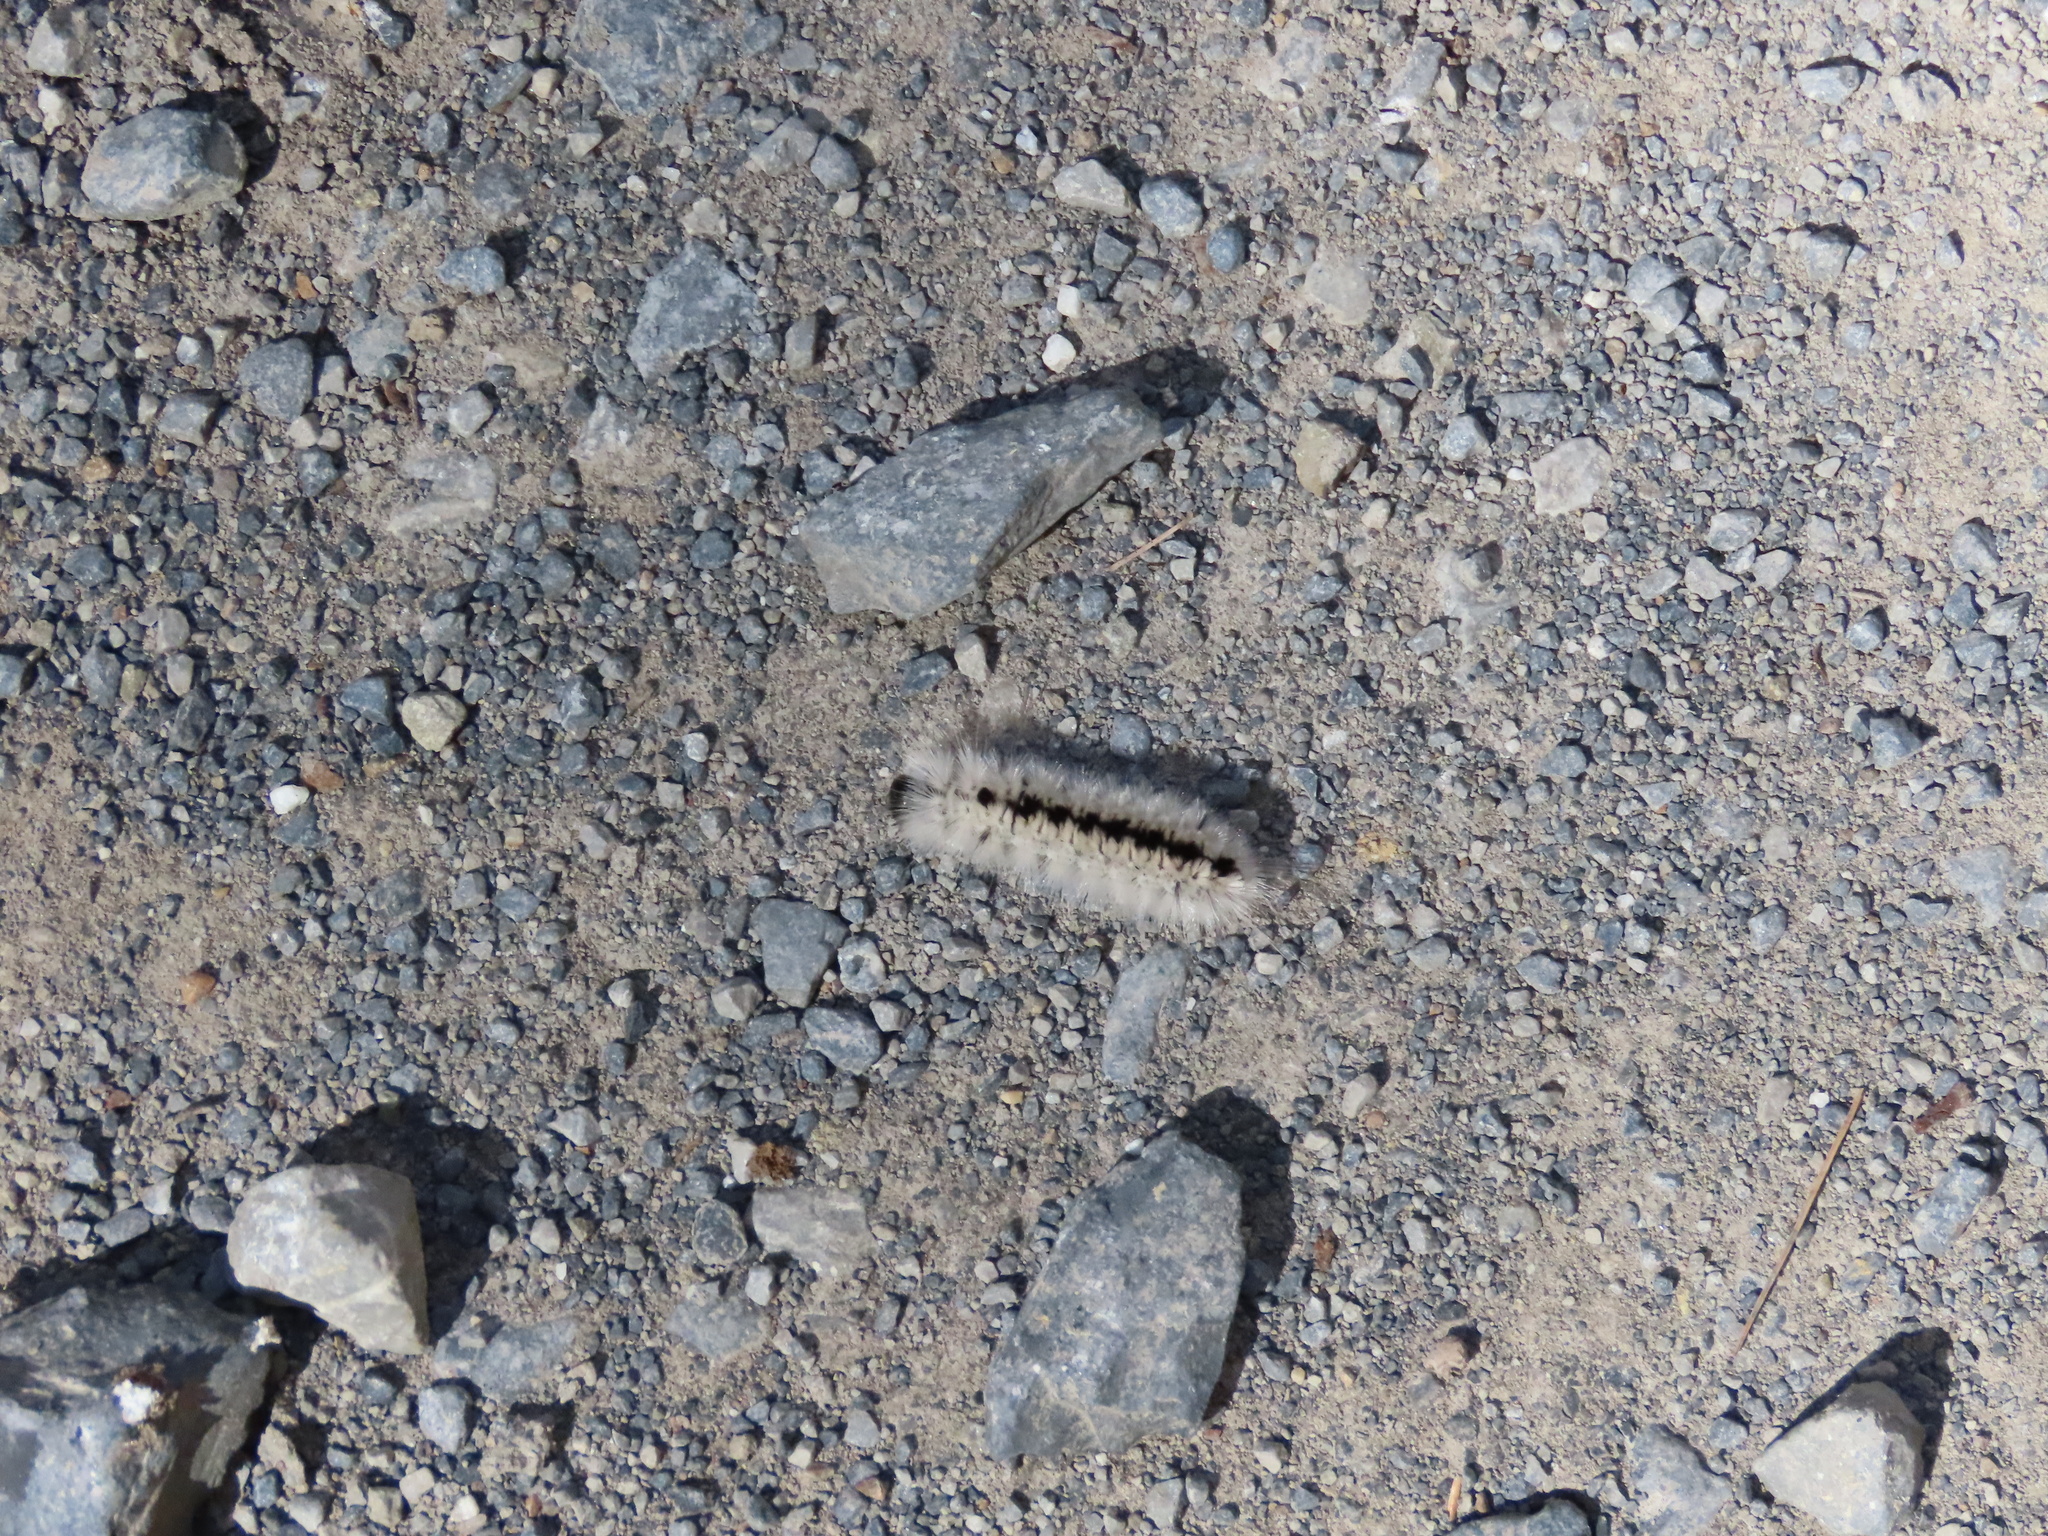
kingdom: Animalia
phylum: Arthropoda
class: Insecta
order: Lepidoptera
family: Erebidae
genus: Lophocampa
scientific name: Lophocampa caryae
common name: Hickory tussock moth
